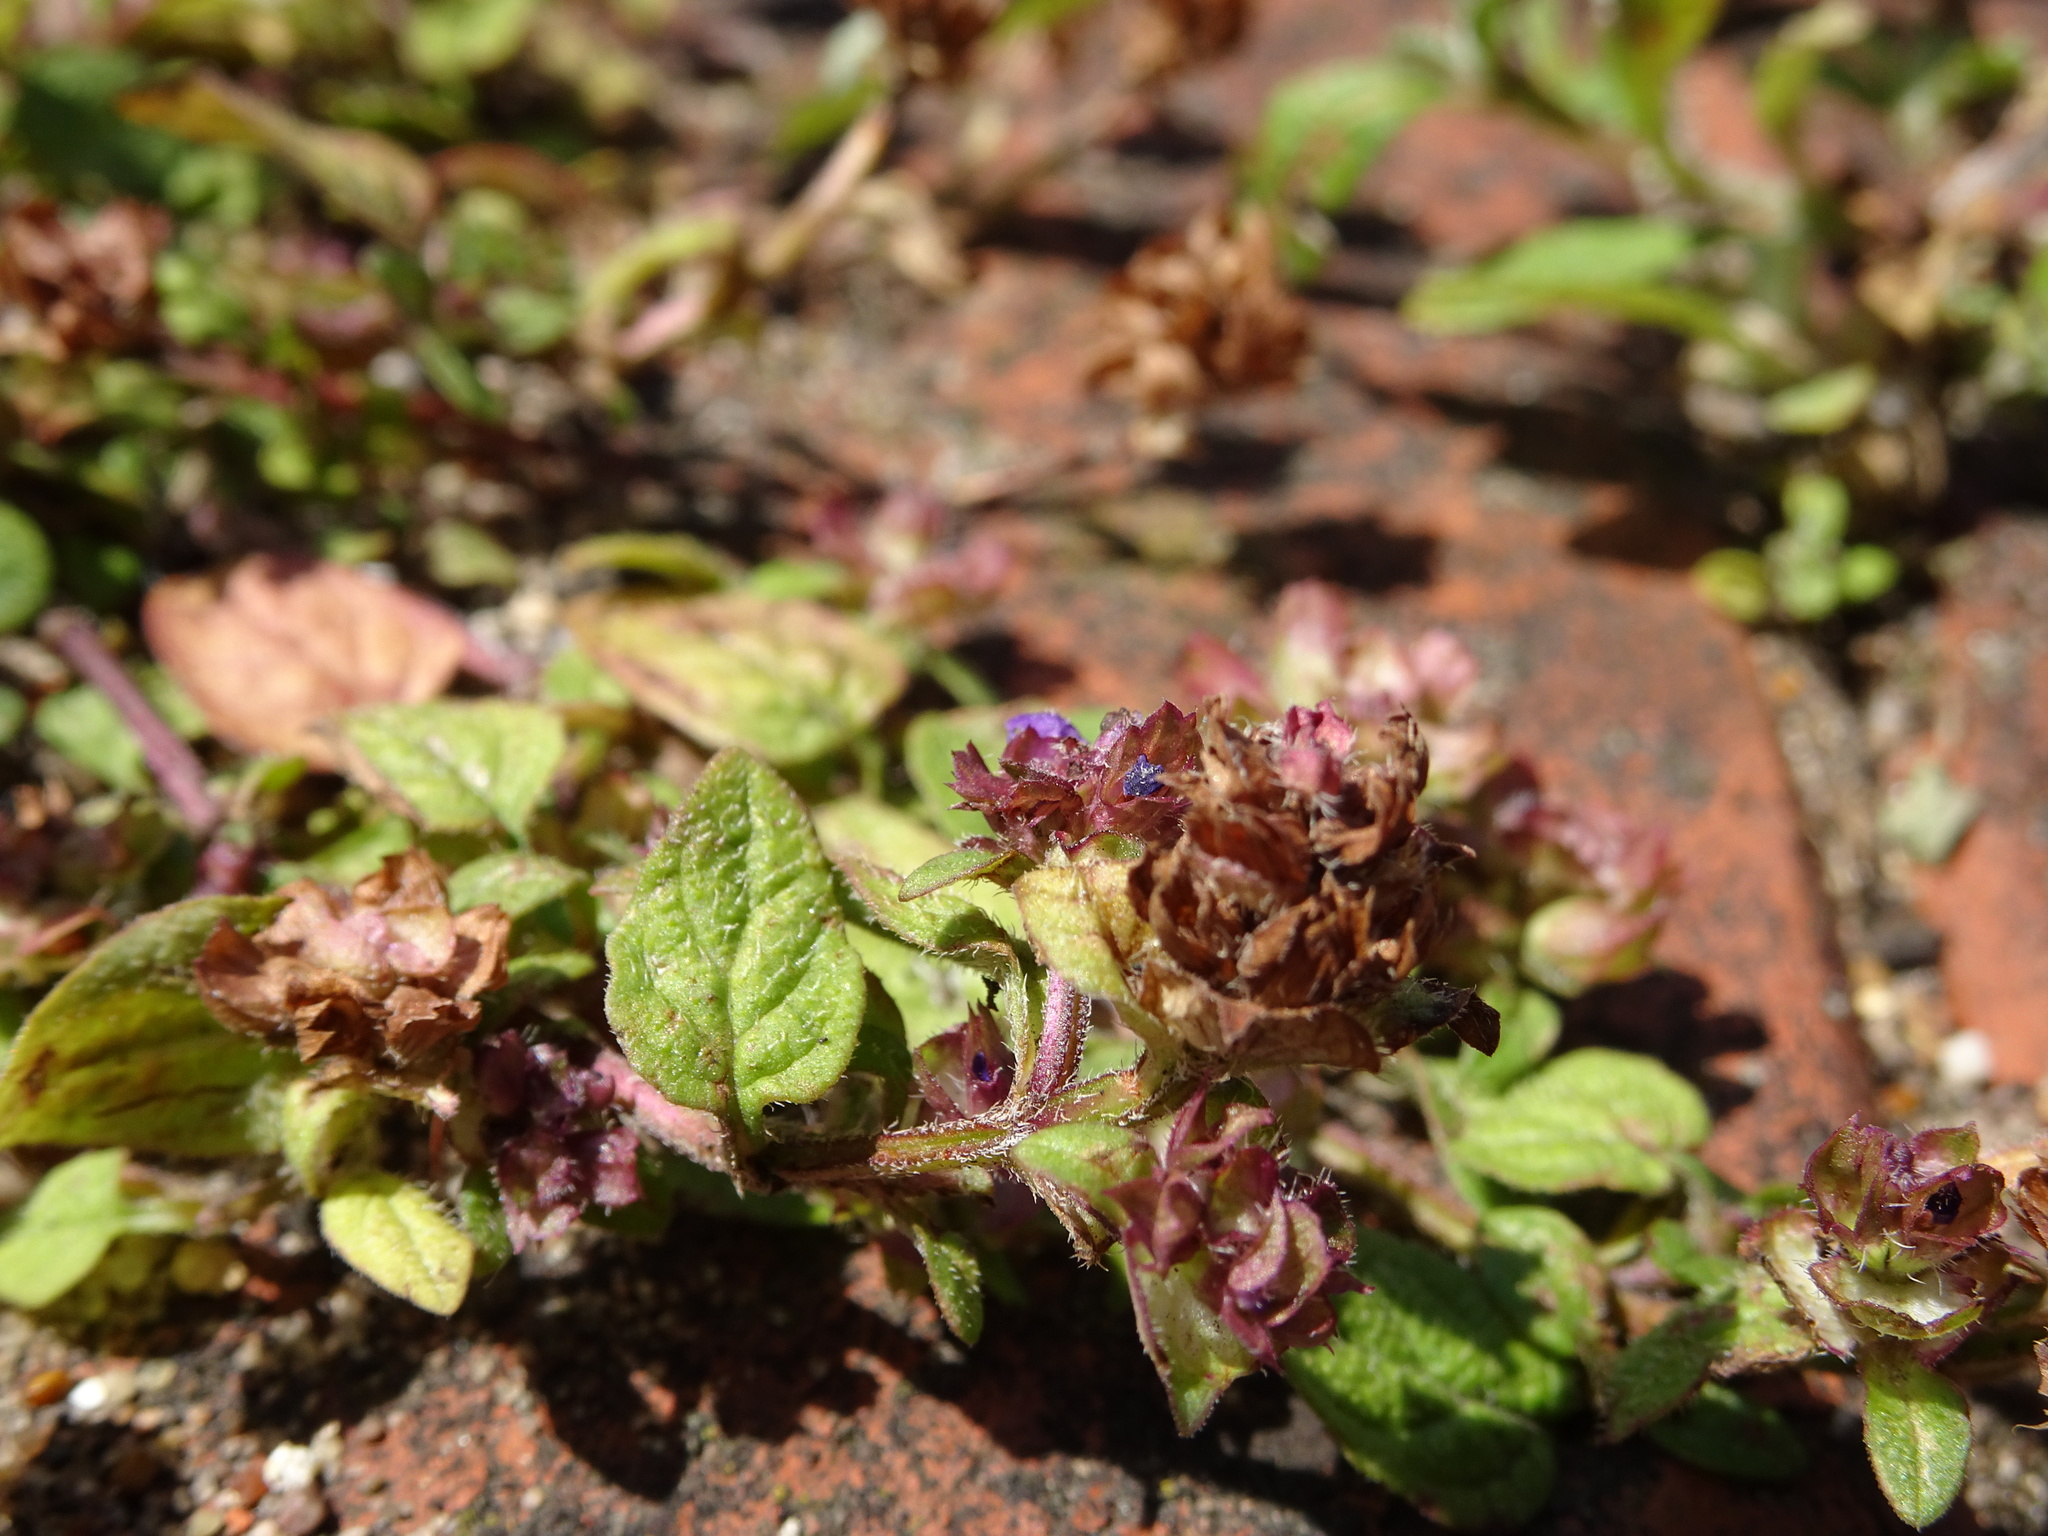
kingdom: Plantae
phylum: Tracheophyta
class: Magnoliopsida
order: Lamiales
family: Lamiaceae
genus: Prunella
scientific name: Prunella vulgaris
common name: Heal-all
